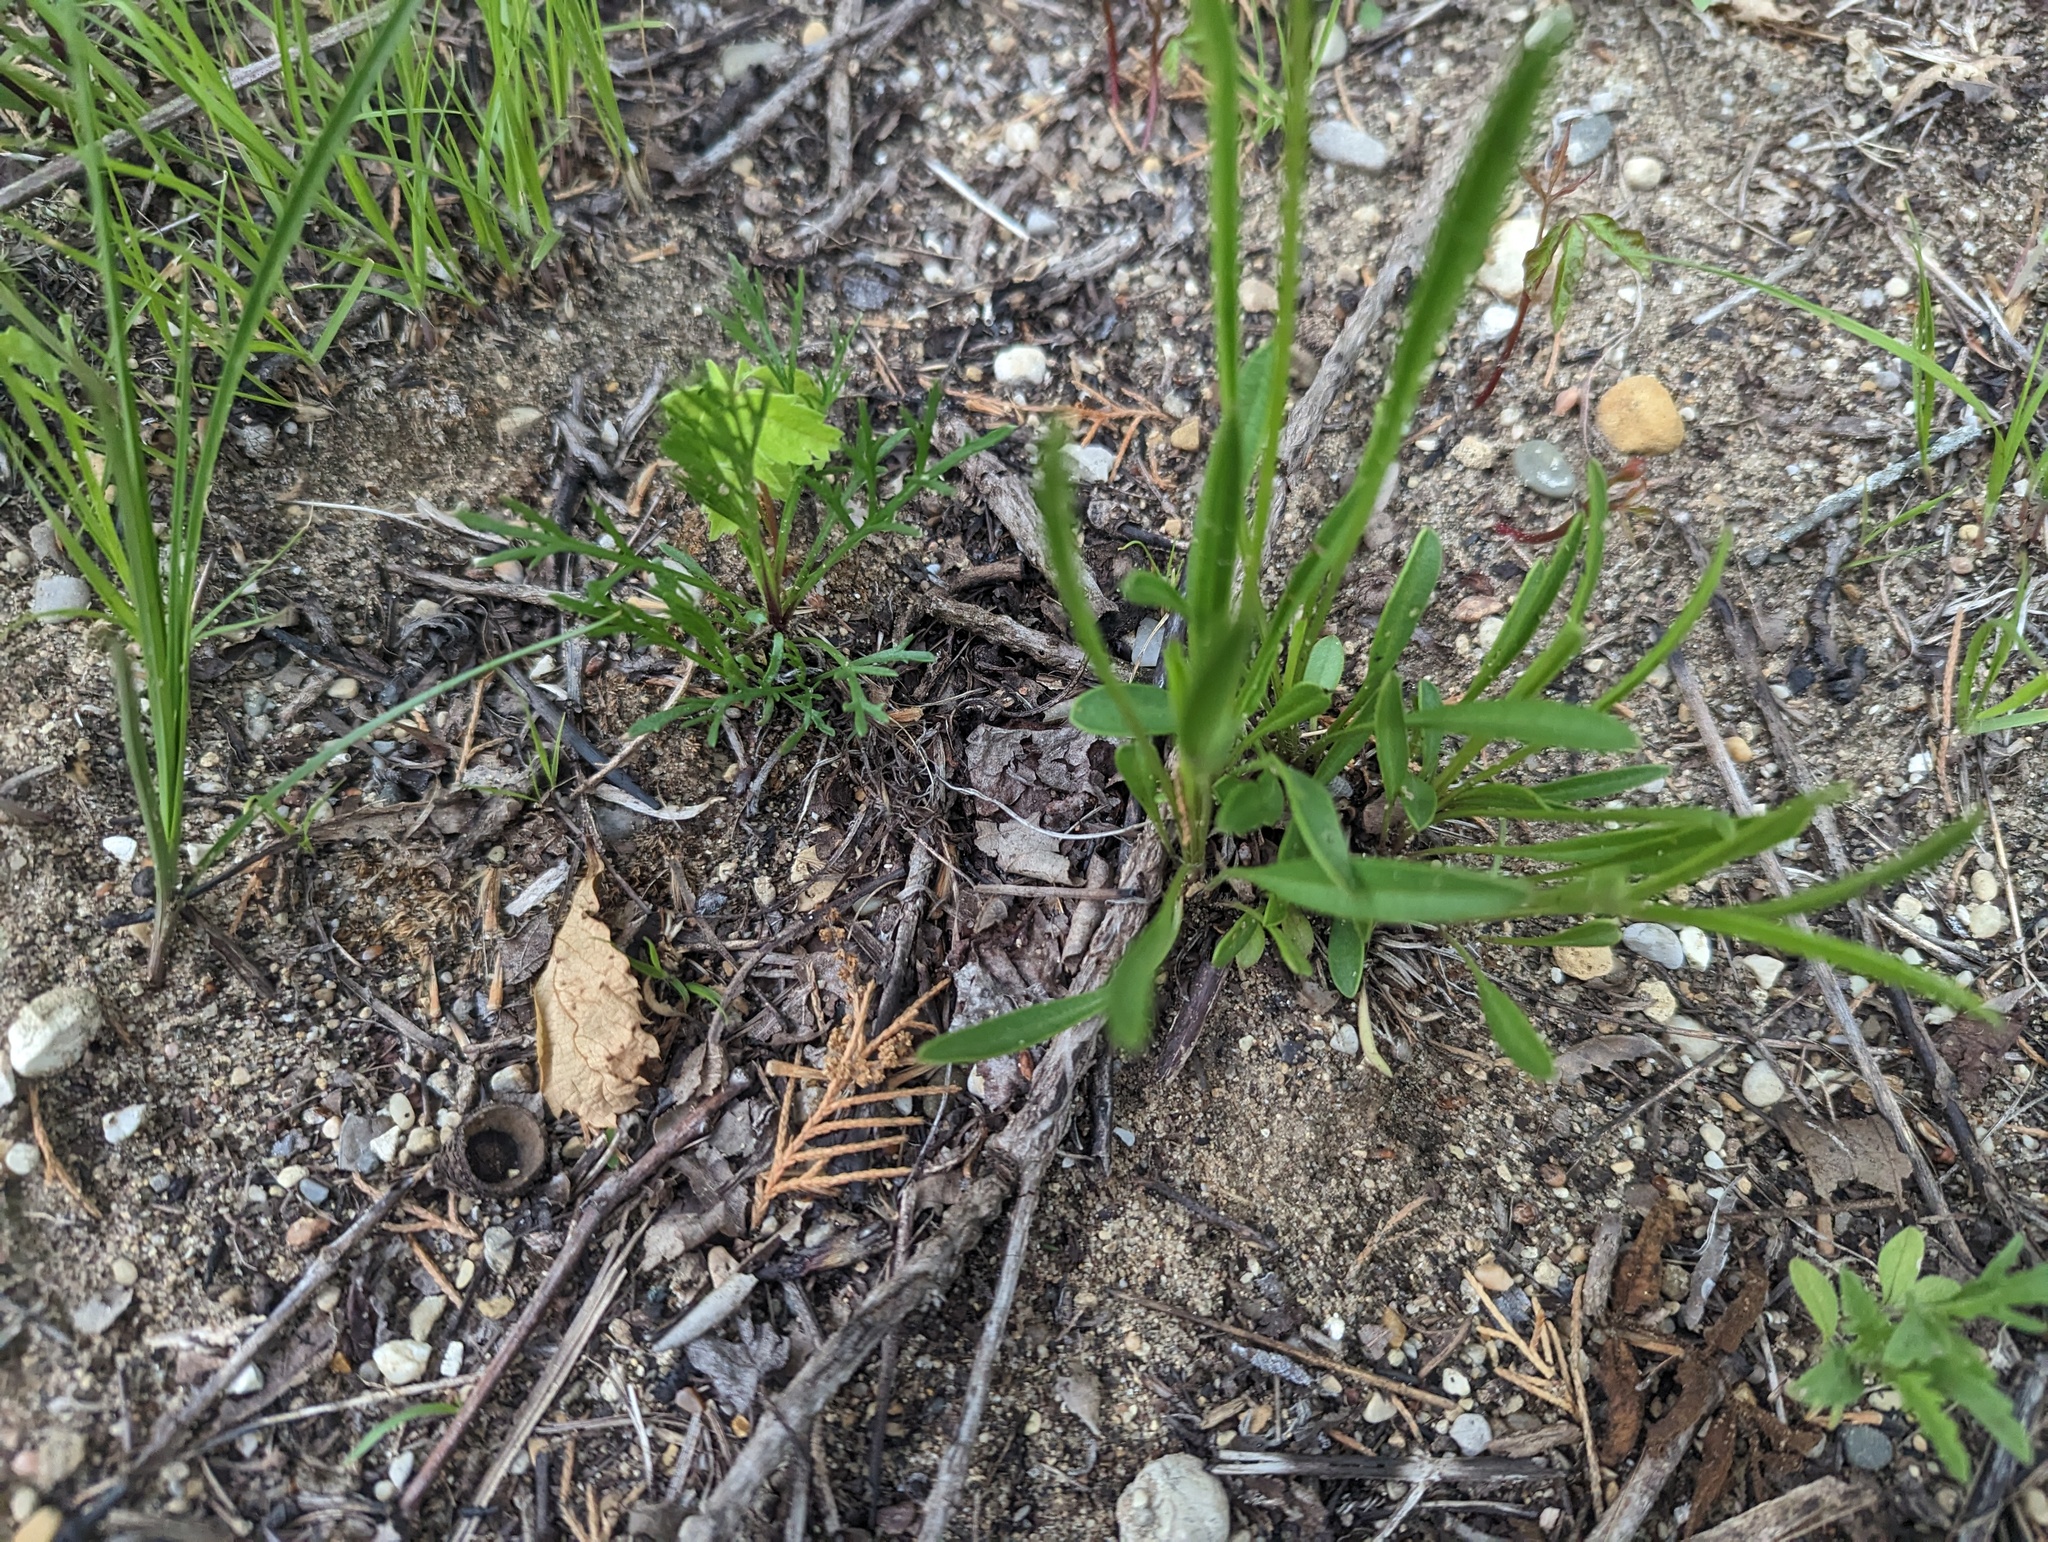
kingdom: Plantae
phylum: Tracheophyta
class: Magnoliopsida
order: Asterales
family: Asteraceae
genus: Coreopsis
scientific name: Coreopsis lanceolata
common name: Garden coreopsis
